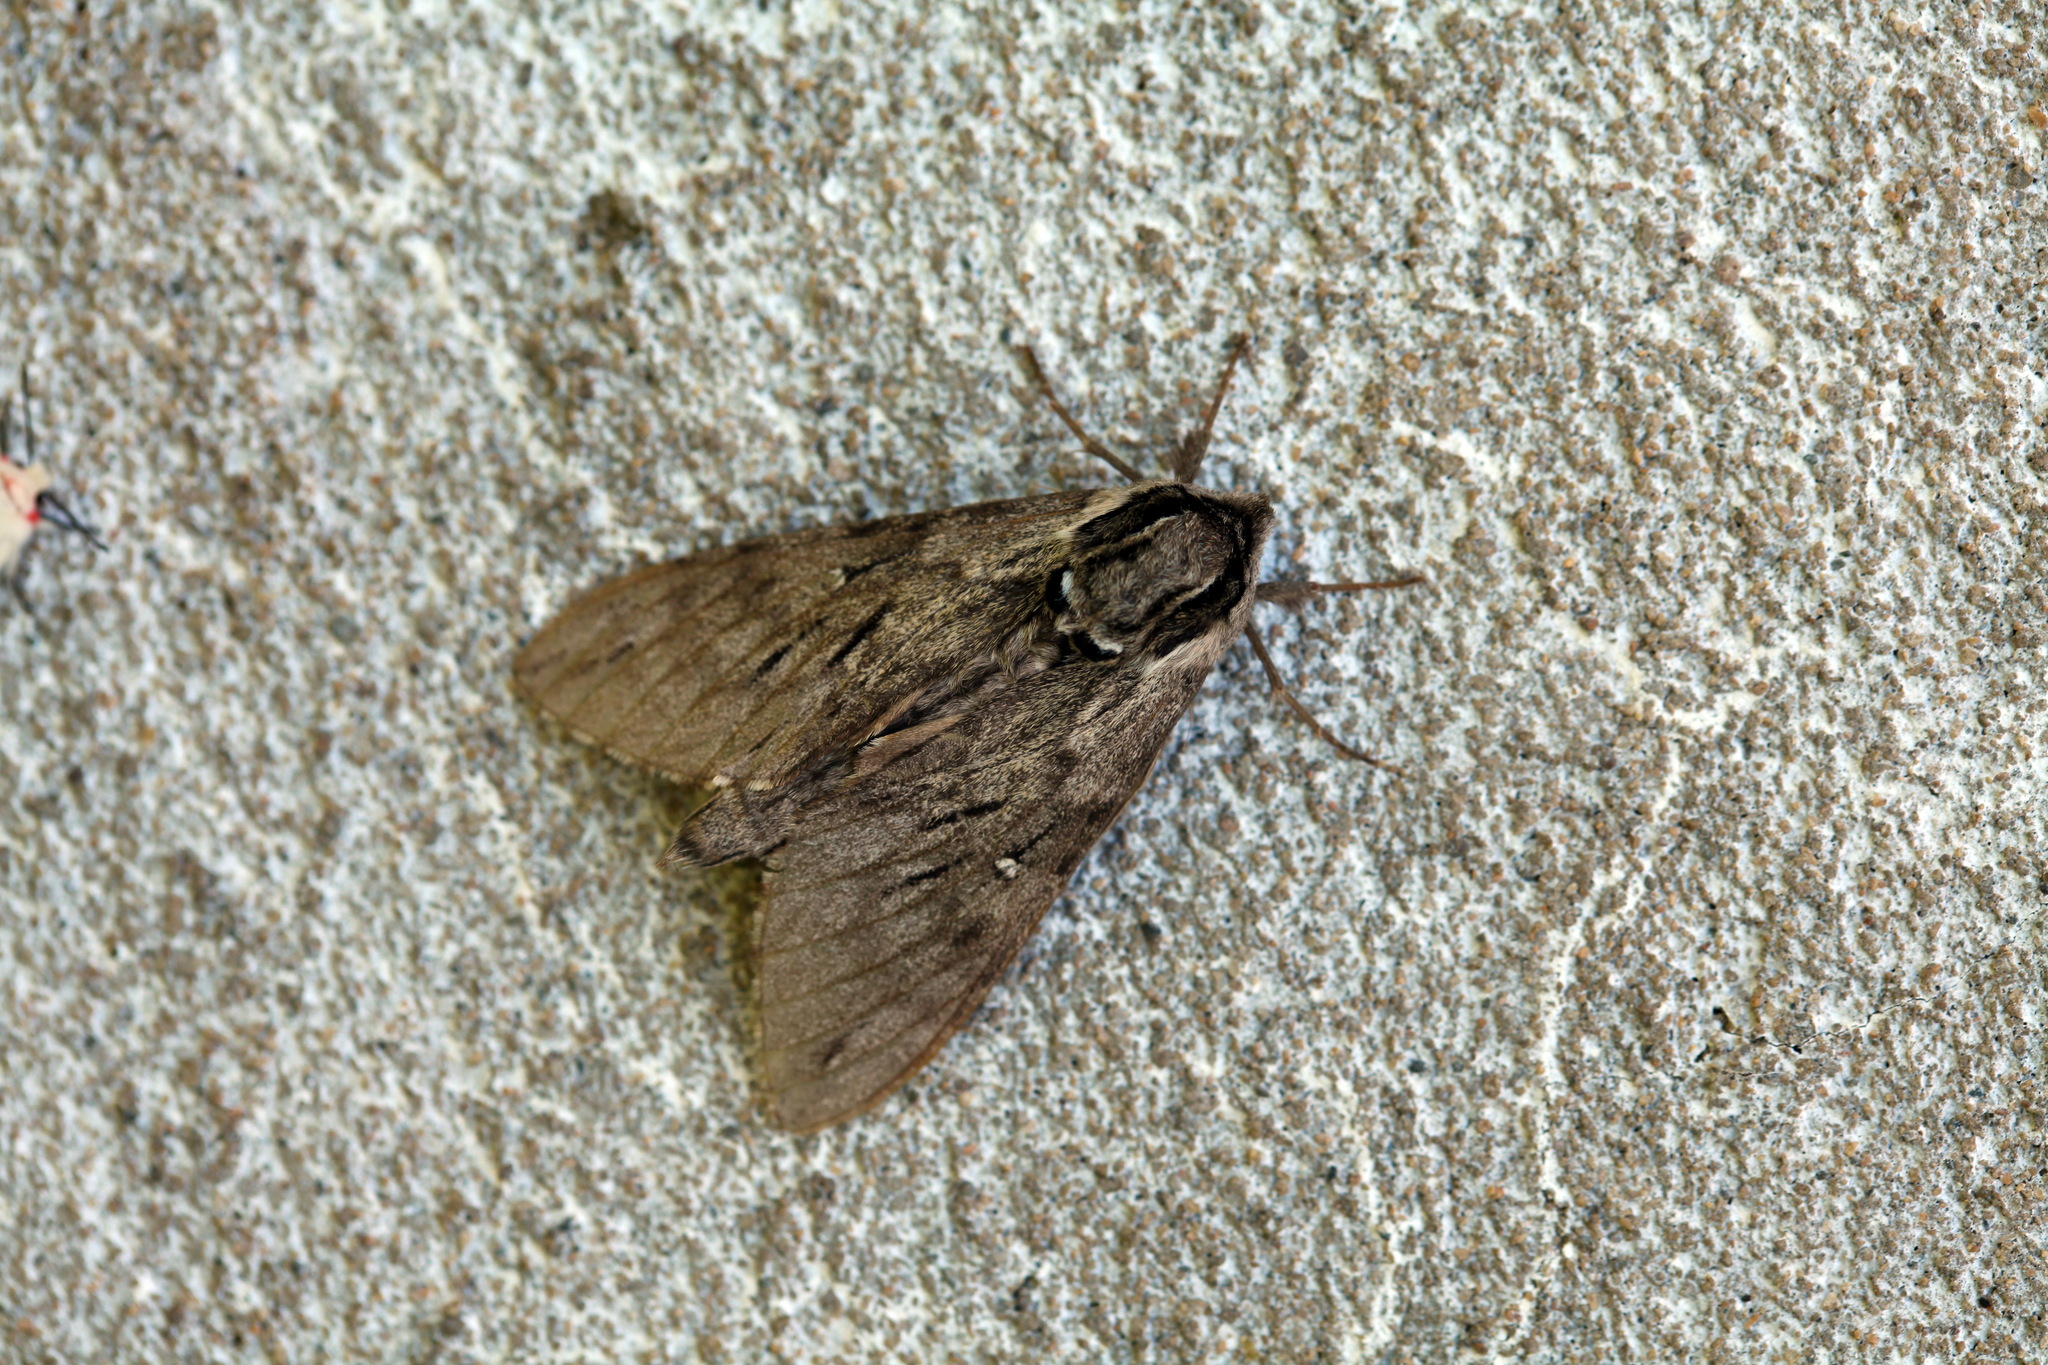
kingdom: Animalia
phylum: Arthropoda
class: Insecta
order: Lepidoptera
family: Sphingidae
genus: Sphinx
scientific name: Sphinx morio
